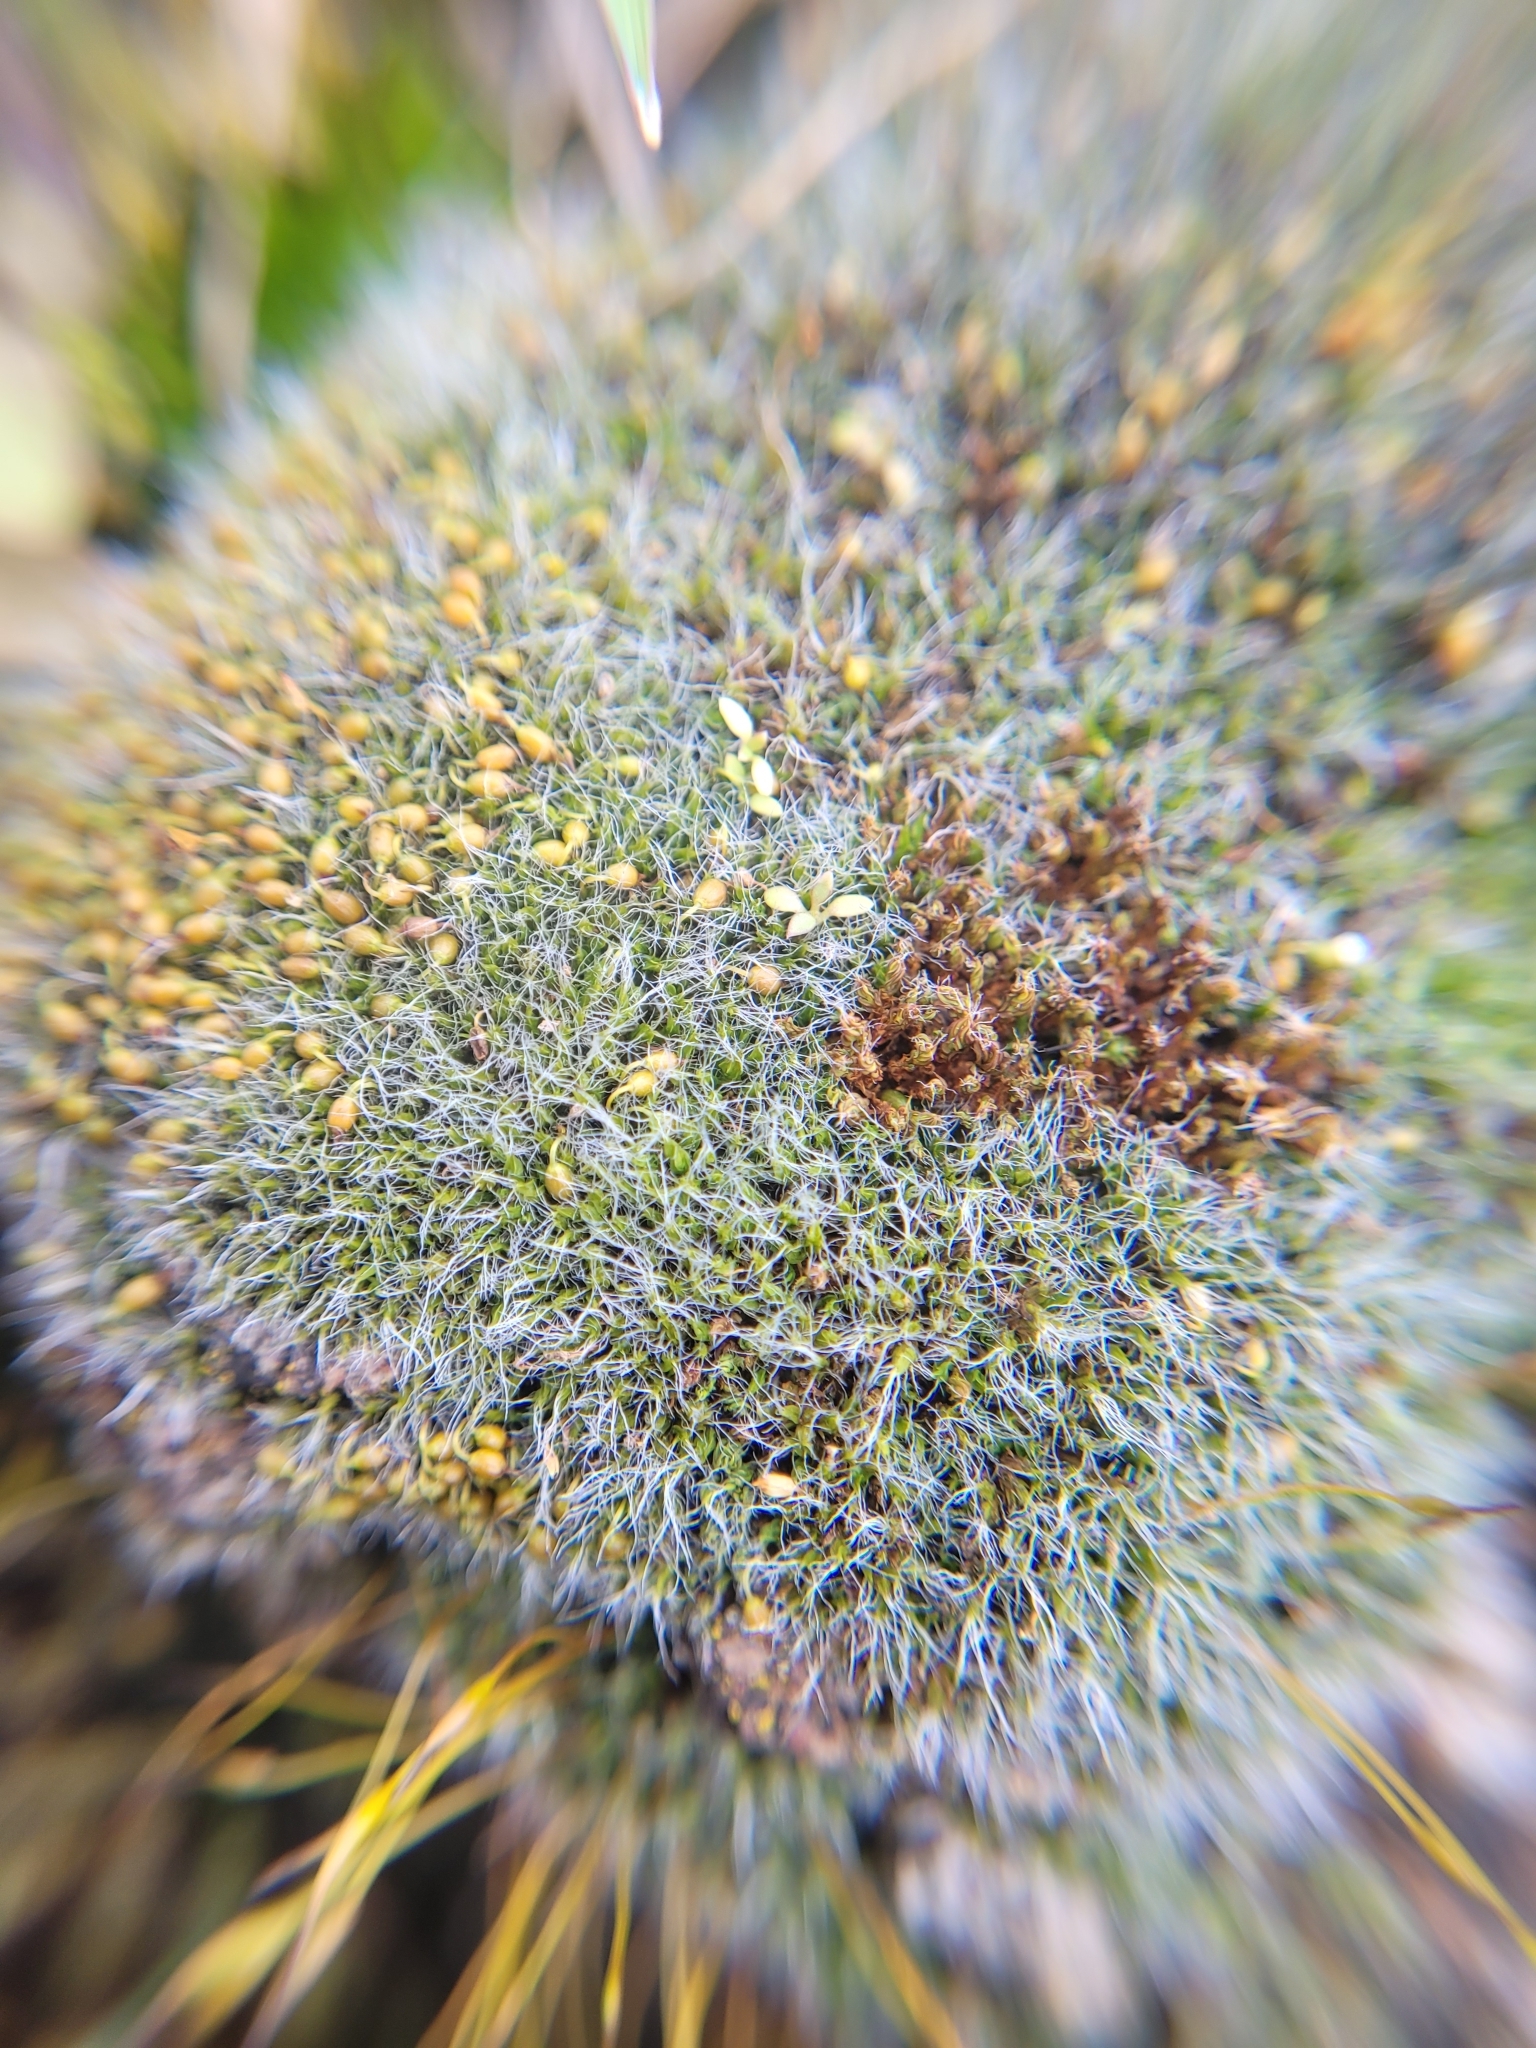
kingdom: Plantae
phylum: Bryophyta
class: Bryopsida
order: Grimmiales
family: Grimmiaceae
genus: Grimmia
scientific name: Grimmia pulvinata
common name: Grey-cushioned grimmia
